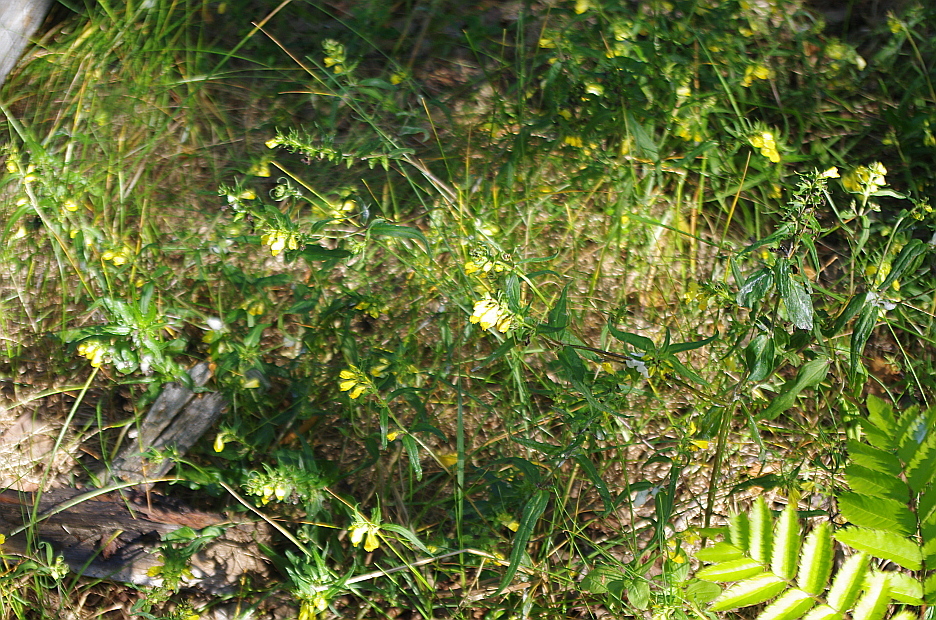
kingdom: Plantae
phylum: Tracheophyta
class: Magnoliopsida
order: Lamiales
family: Orobanchaceae
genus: Melampyrum
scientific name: Melampyrum pratense
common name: Common cow-wheat
